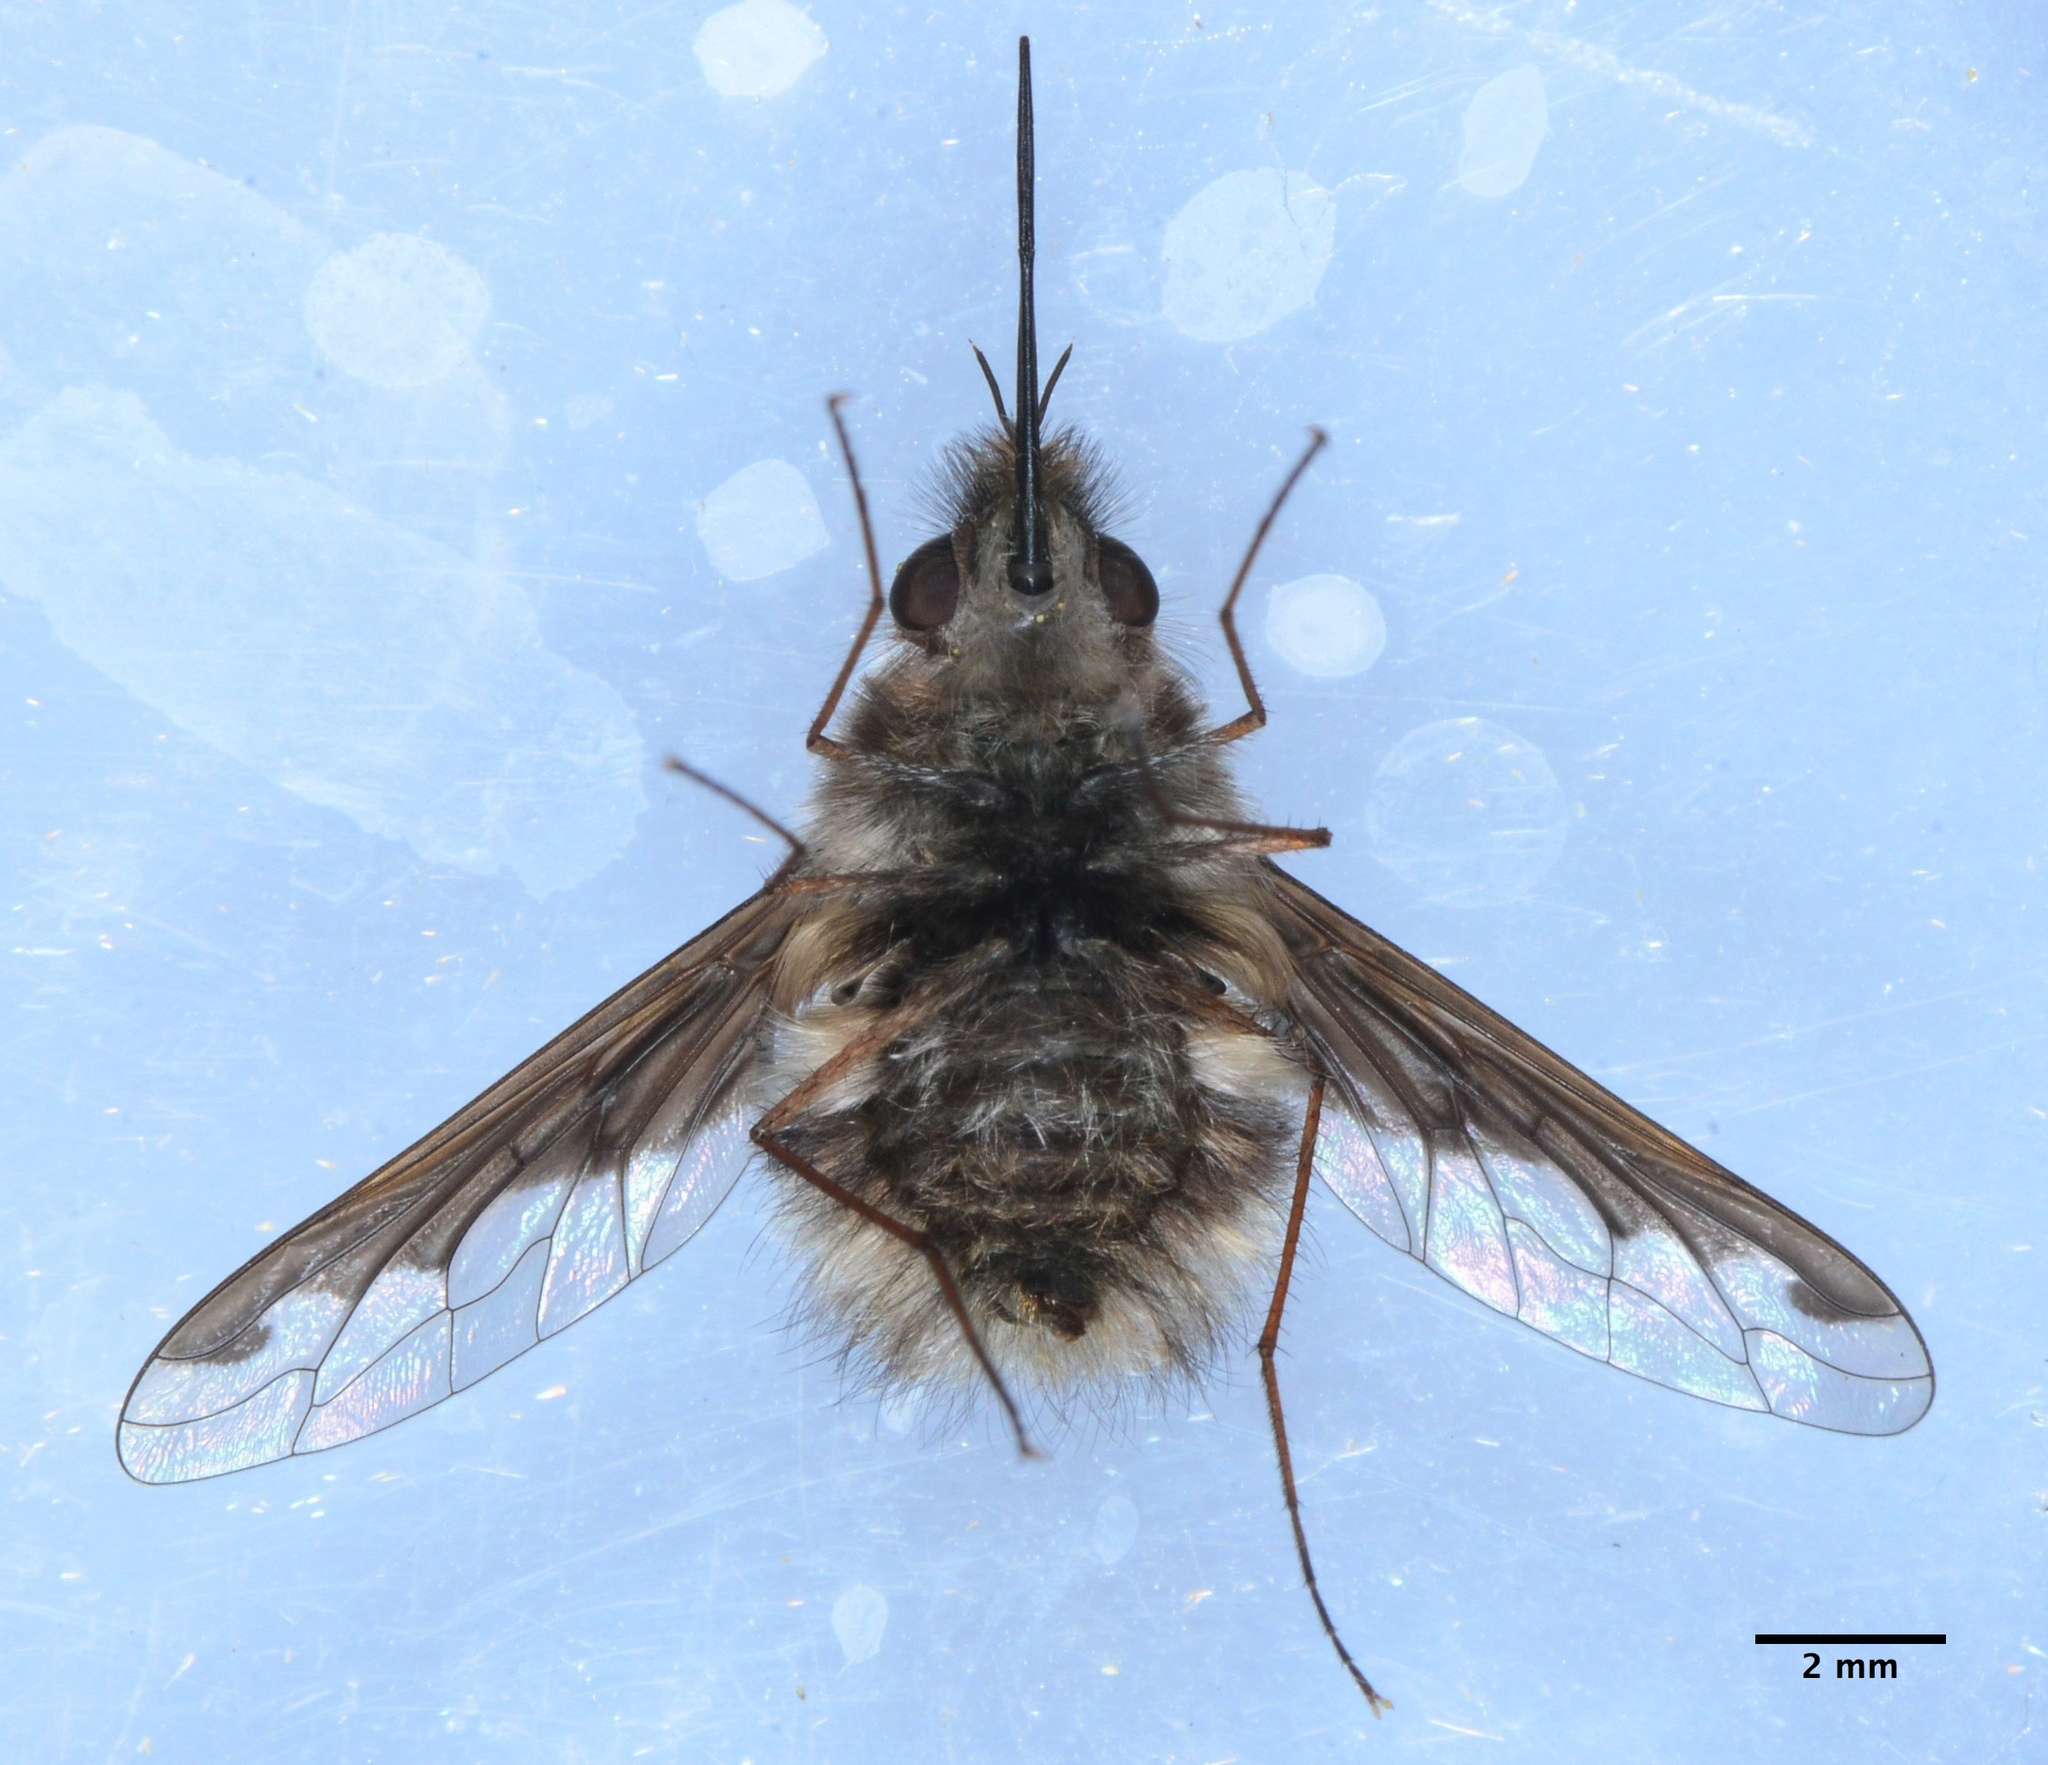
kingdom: Animalia
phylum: Arthropoda
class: Insecta
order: Diptera
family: Bombyliidae
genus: Bombylius
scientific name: Bombylius major
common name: Bee fly
